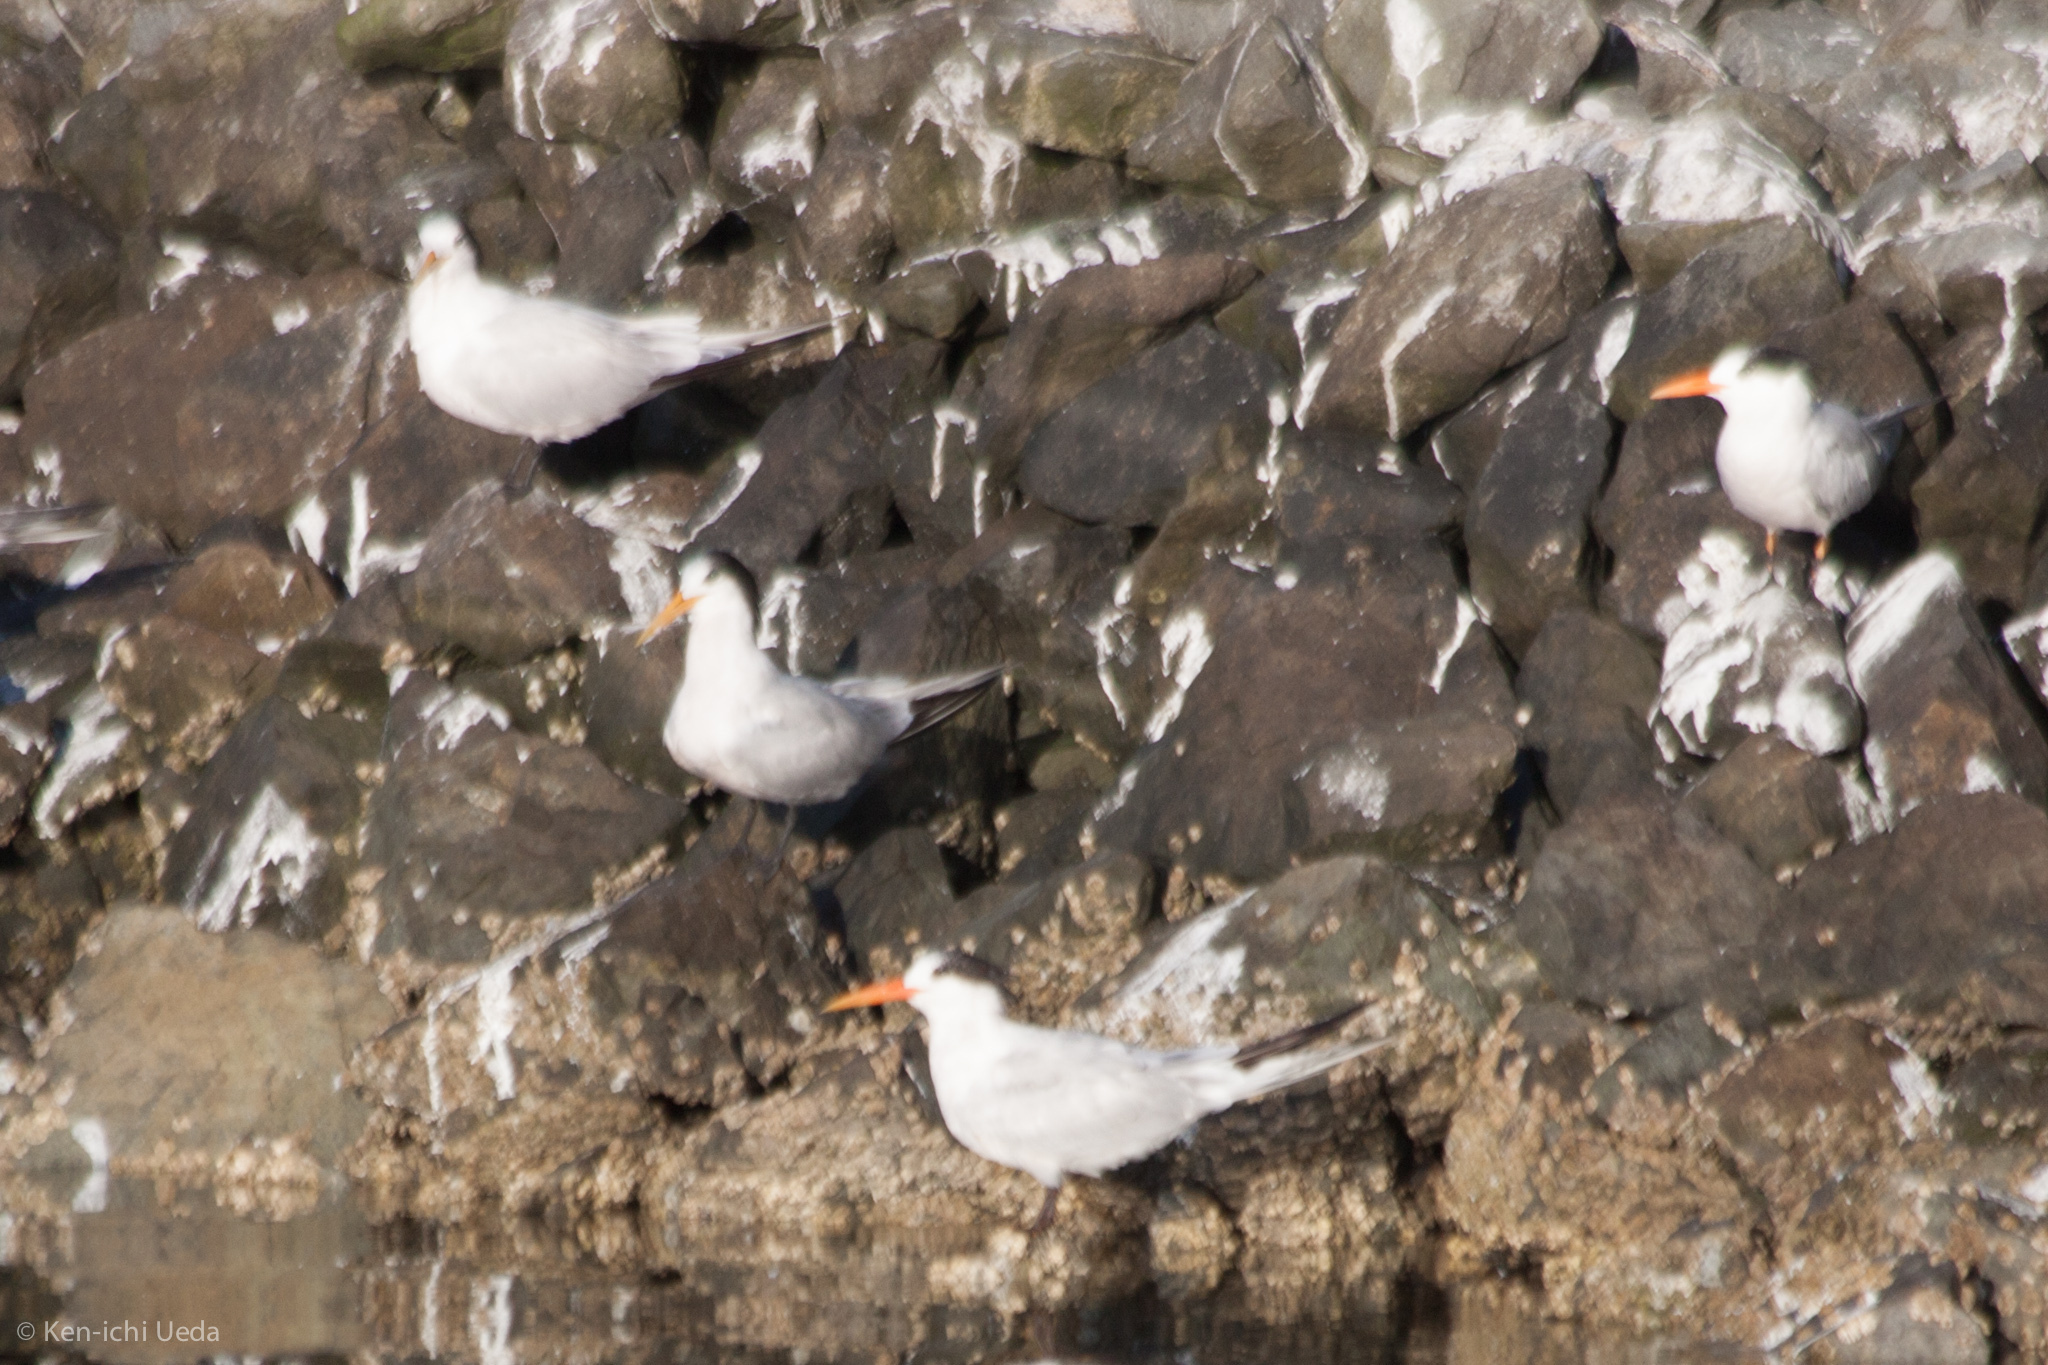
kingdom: Animalia
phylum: Chordata
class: Aves
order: Charadriiformes
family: Laridae
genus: Thalasseus
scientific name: Thalasseus elegans
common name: Elegant tern
